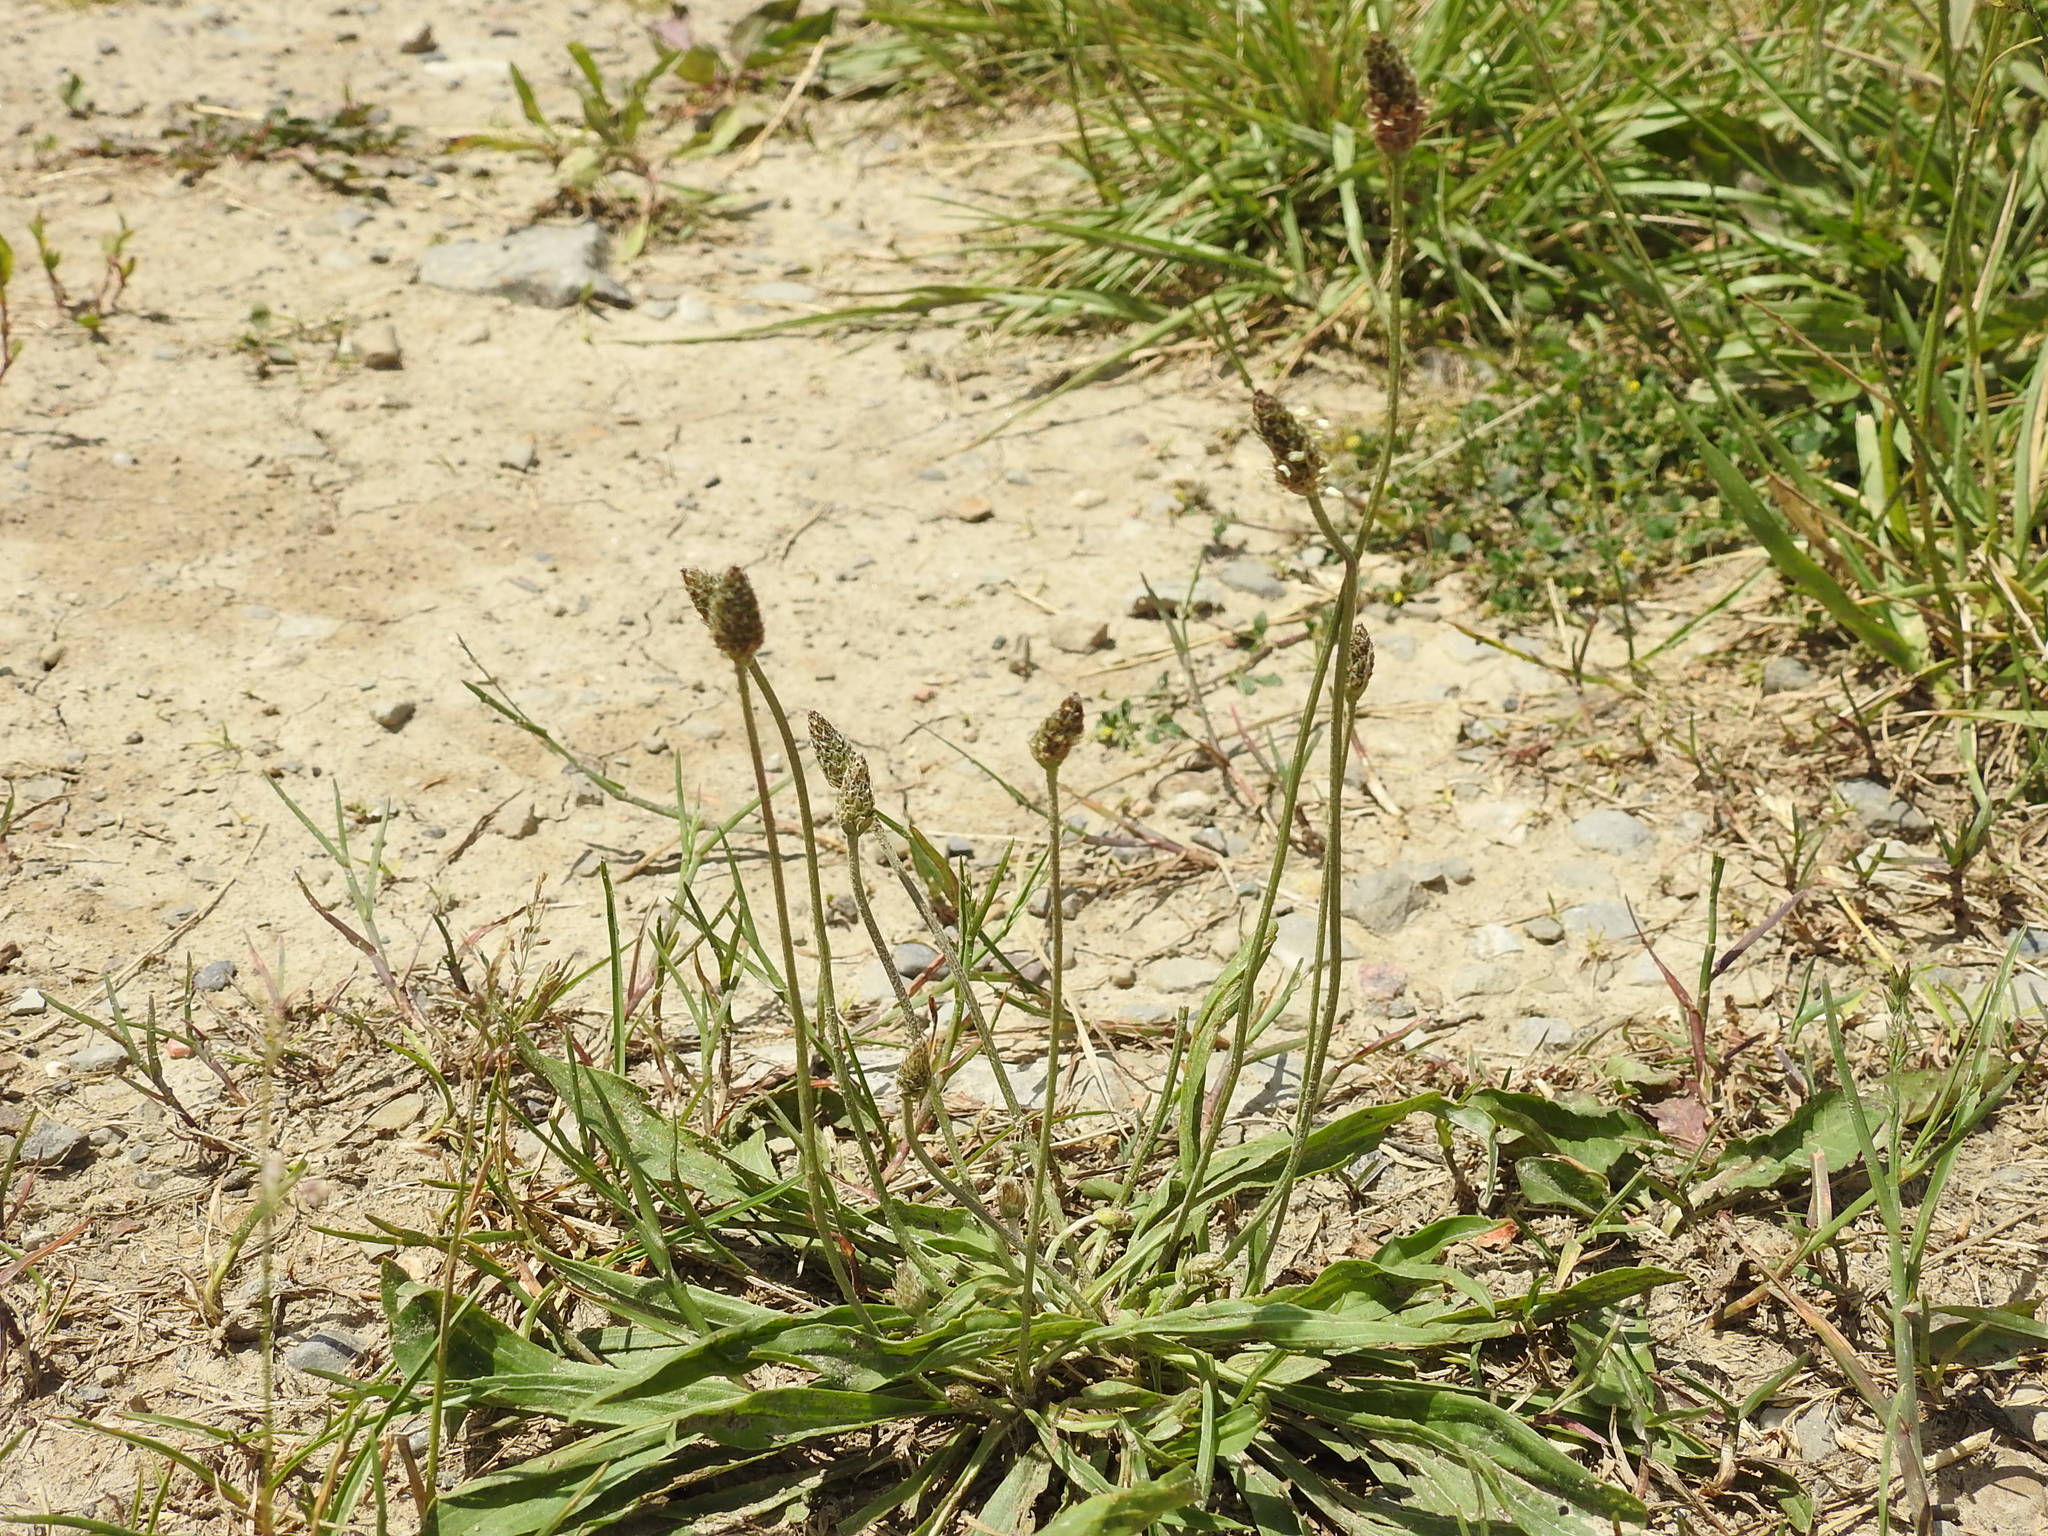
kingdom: Plantae
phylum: Tracheophyta
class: Magnoliopsida
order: Lamiales
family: Plantaginaceae
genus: Plantago
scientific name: Plantago lanceolata
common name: Ribwort plantain
